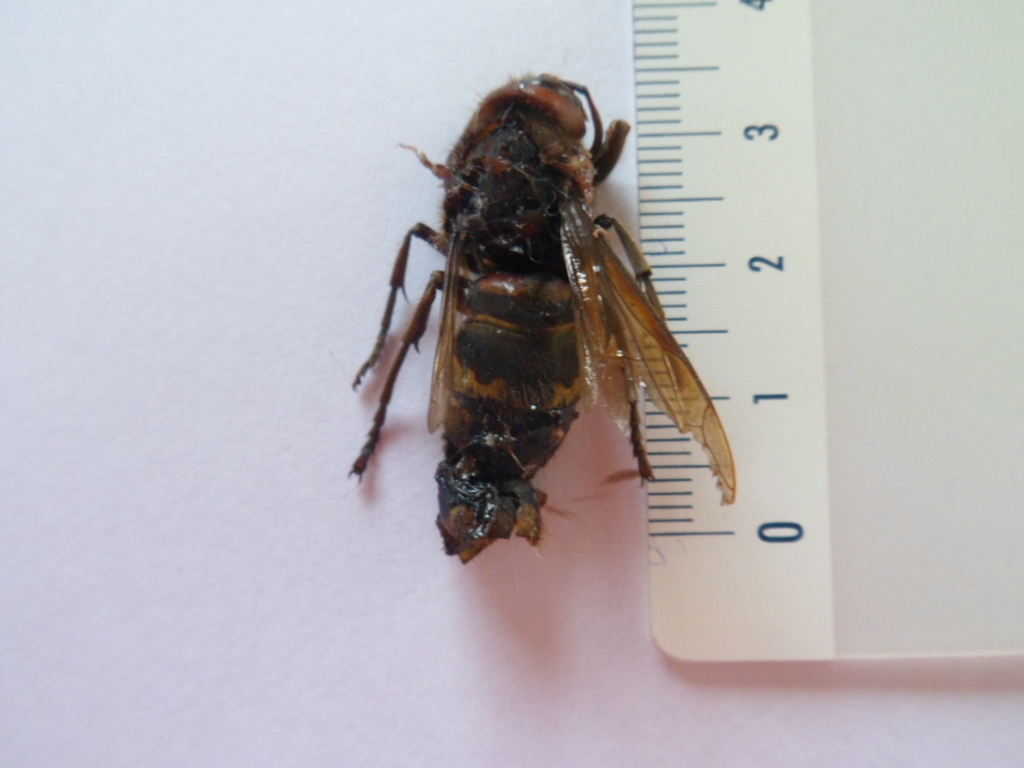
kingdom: Animalia
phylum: Arthropoda
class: Insecta
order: Hymenoptera
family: Vespidae
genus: Vespa
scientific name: Vespa crabro
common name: Hornet
